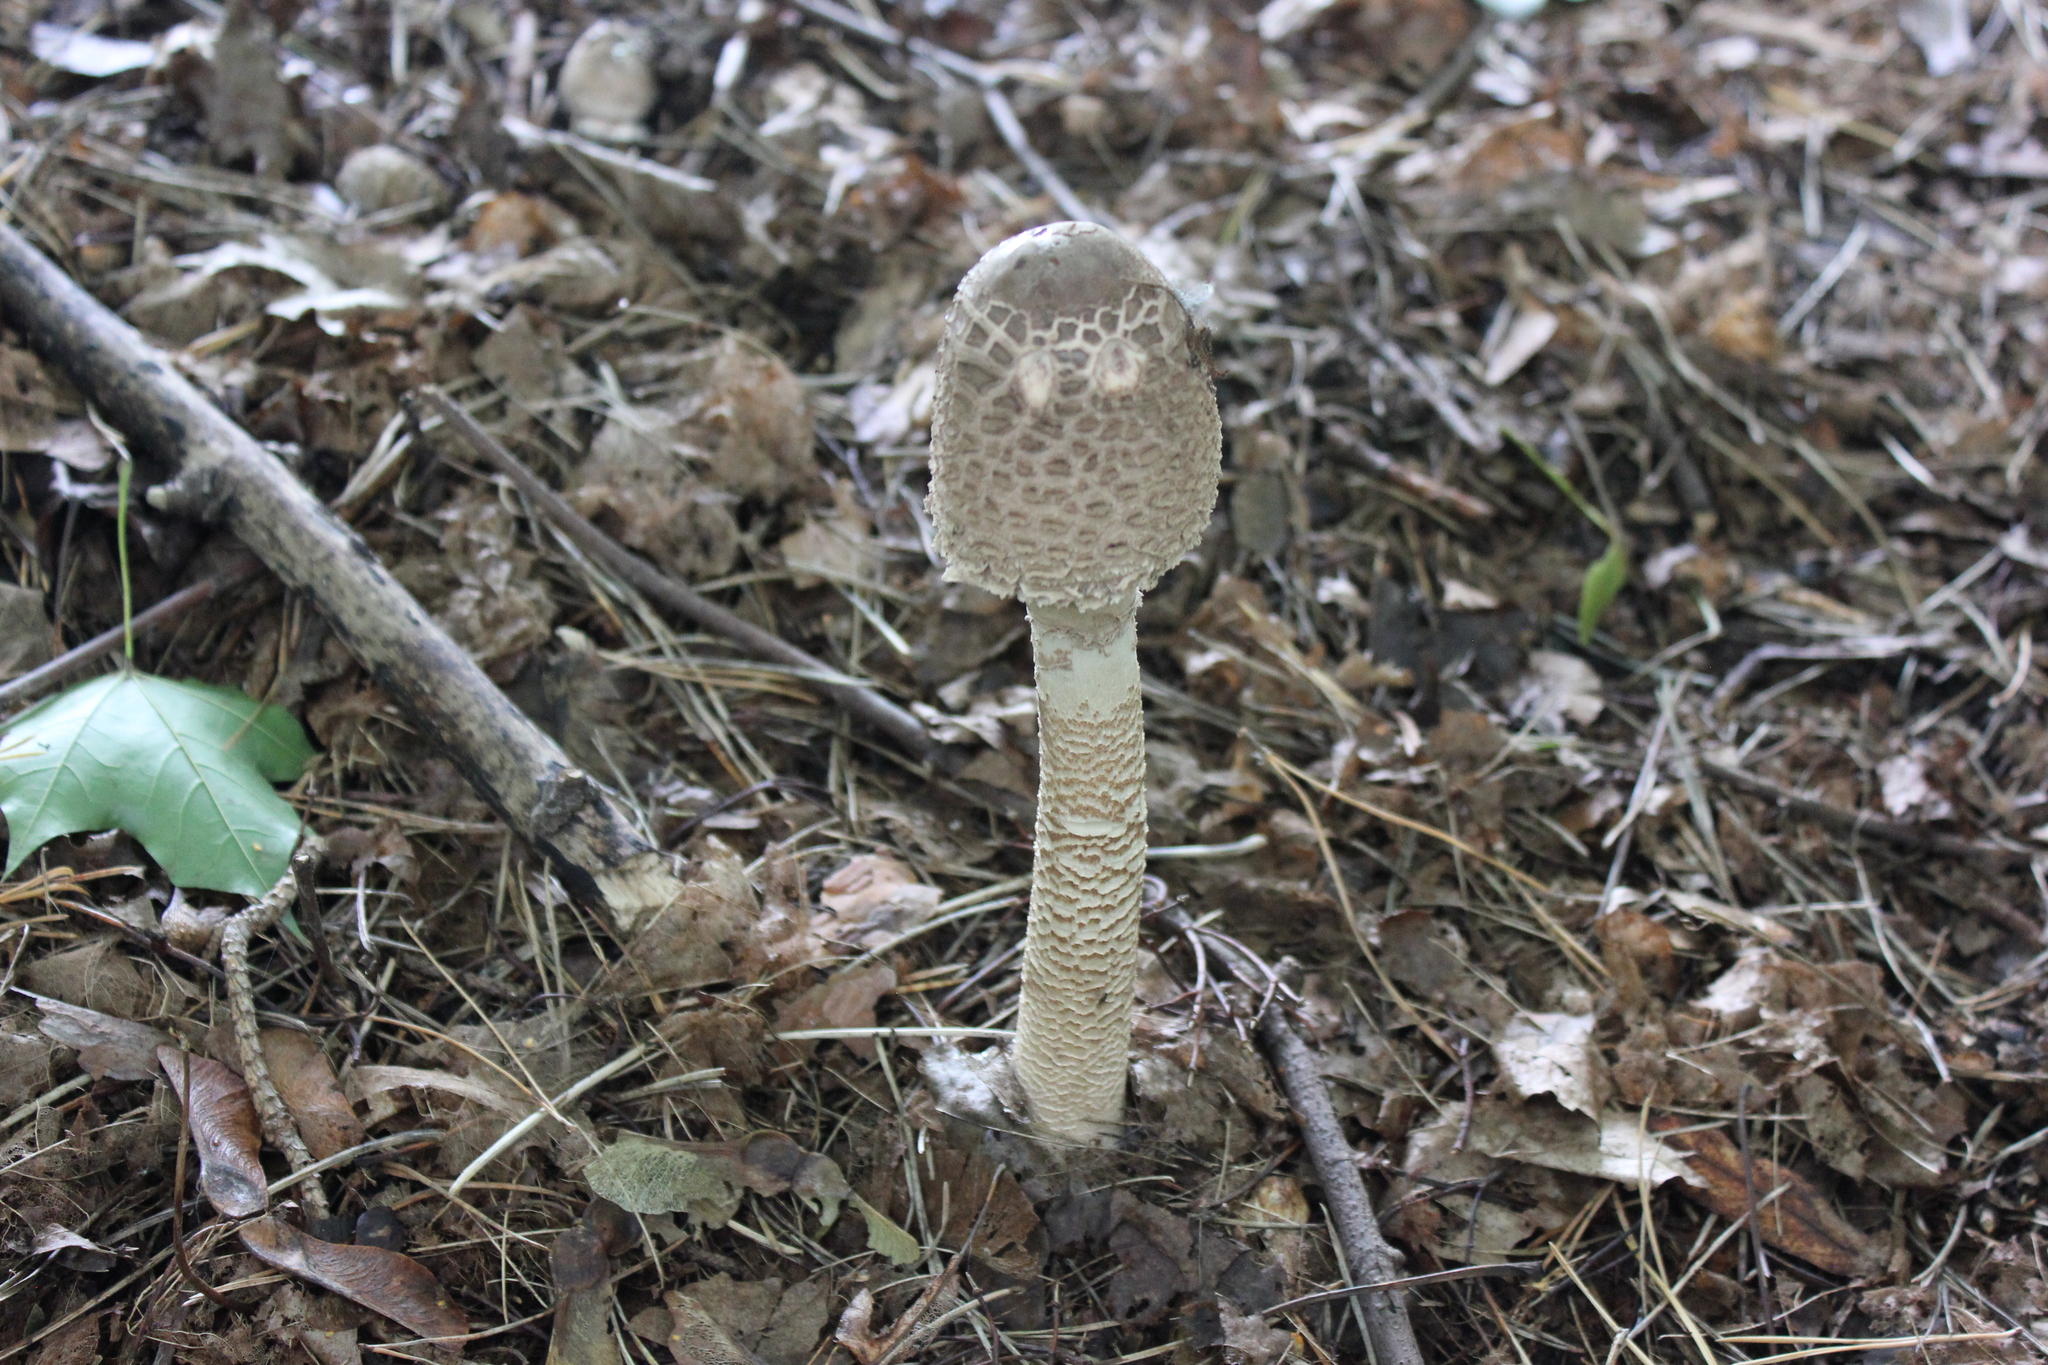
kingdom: Fungi
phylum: Basidiomycota
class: Agaricomycetes
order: Agaricales
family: Agaricaceae
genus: Macrolepiota
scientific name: Macrolepiota procera
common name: Parasol
